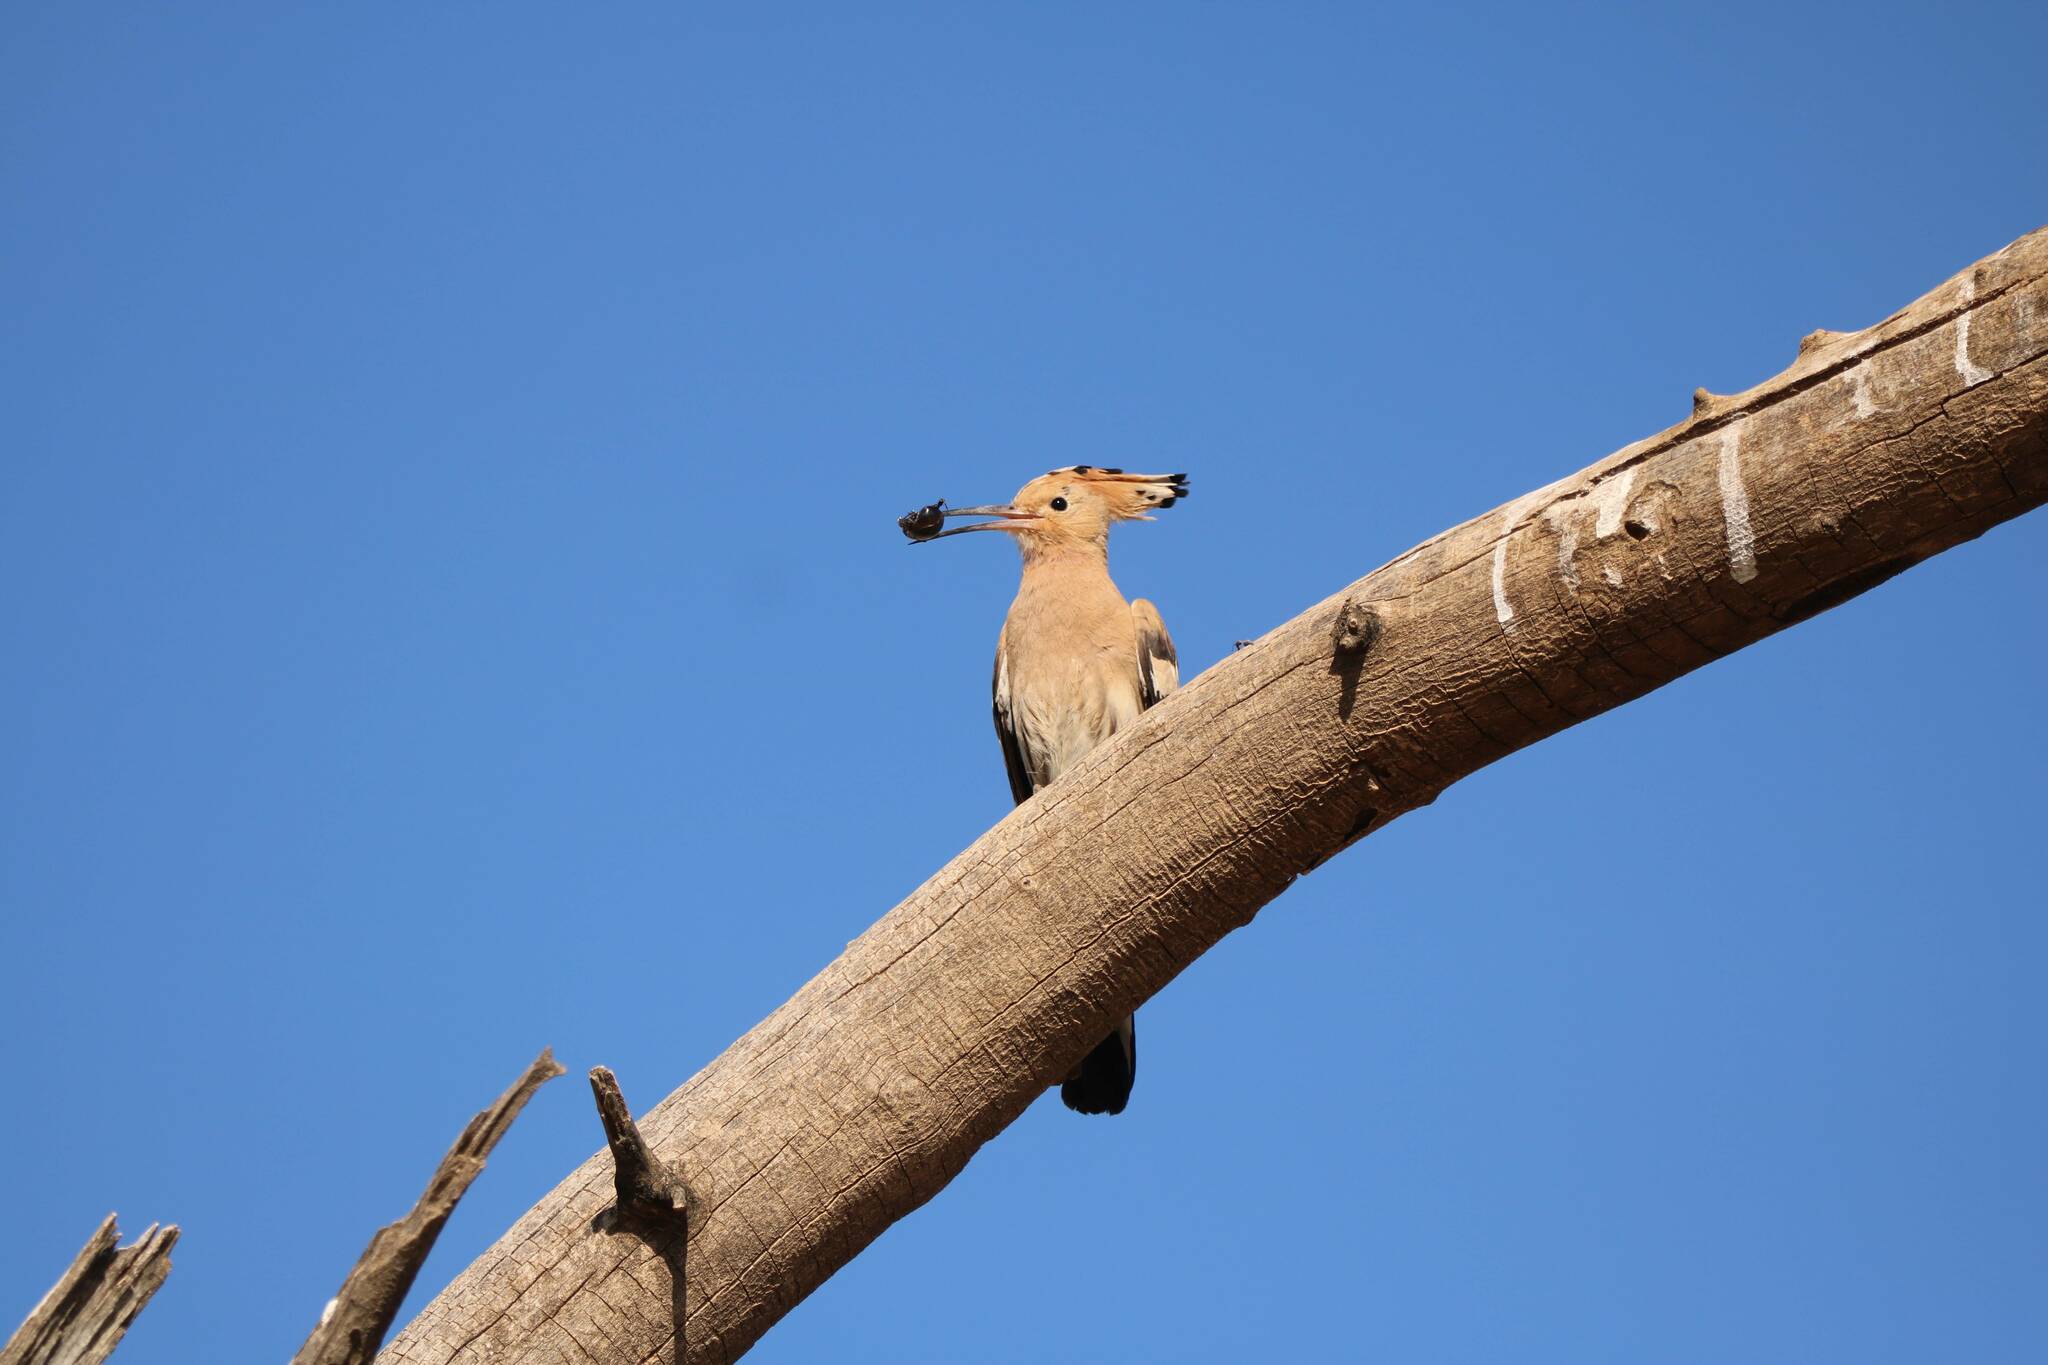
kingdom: Animalia
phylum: Chordata
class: Aves
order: Bucerotiformes
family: Upupidae
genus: Upupa
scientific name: Upupa epops
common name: Eurasian hoopoe
